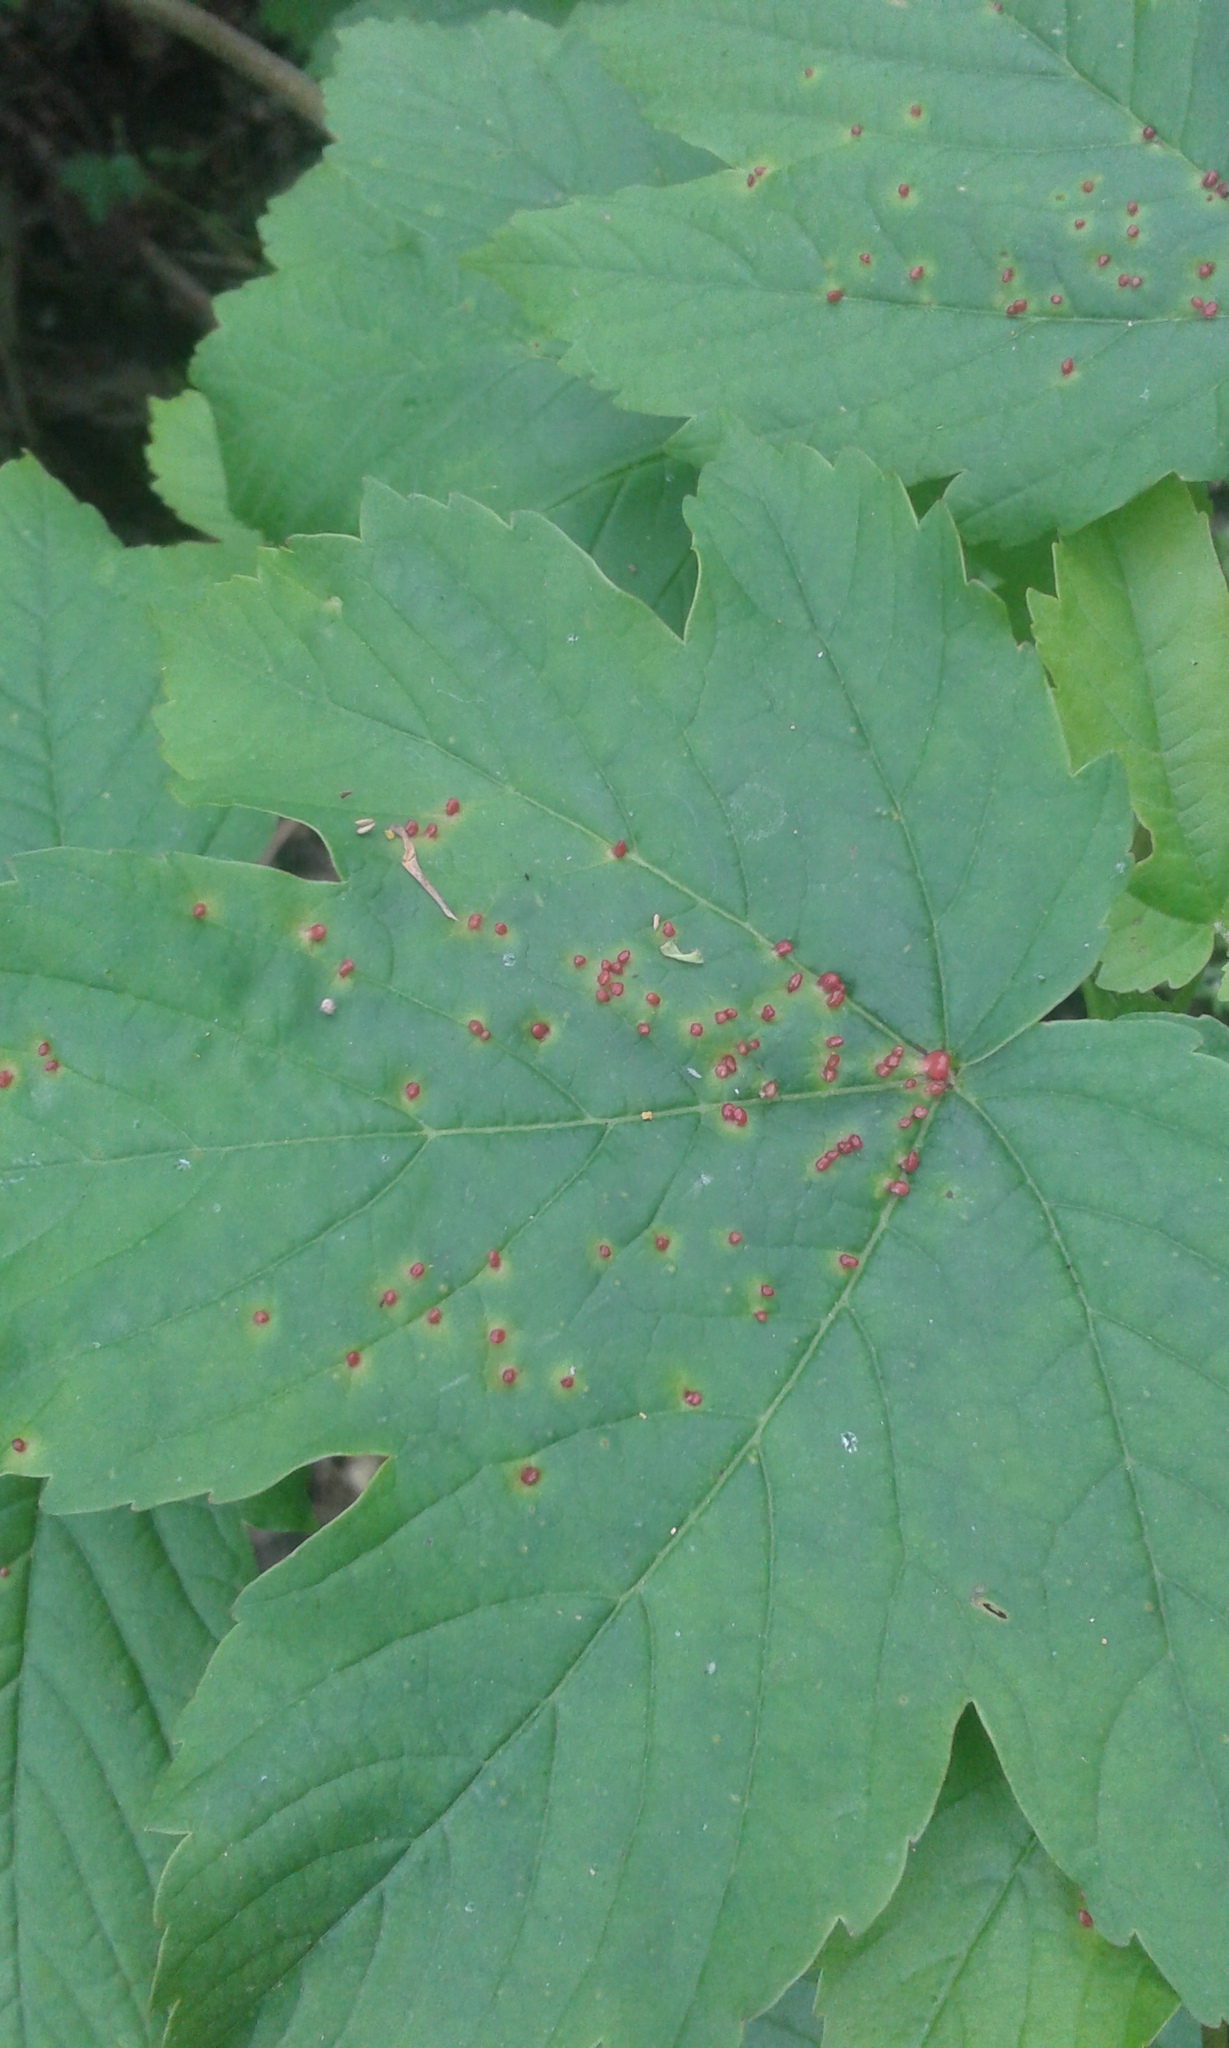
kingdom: Plantae
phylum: Tracheophyta
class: Magnoliopsida
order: Sapindales
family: Sapindaceae
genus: Acer
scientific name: Acer pseudoplatanus
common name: Sycamore
